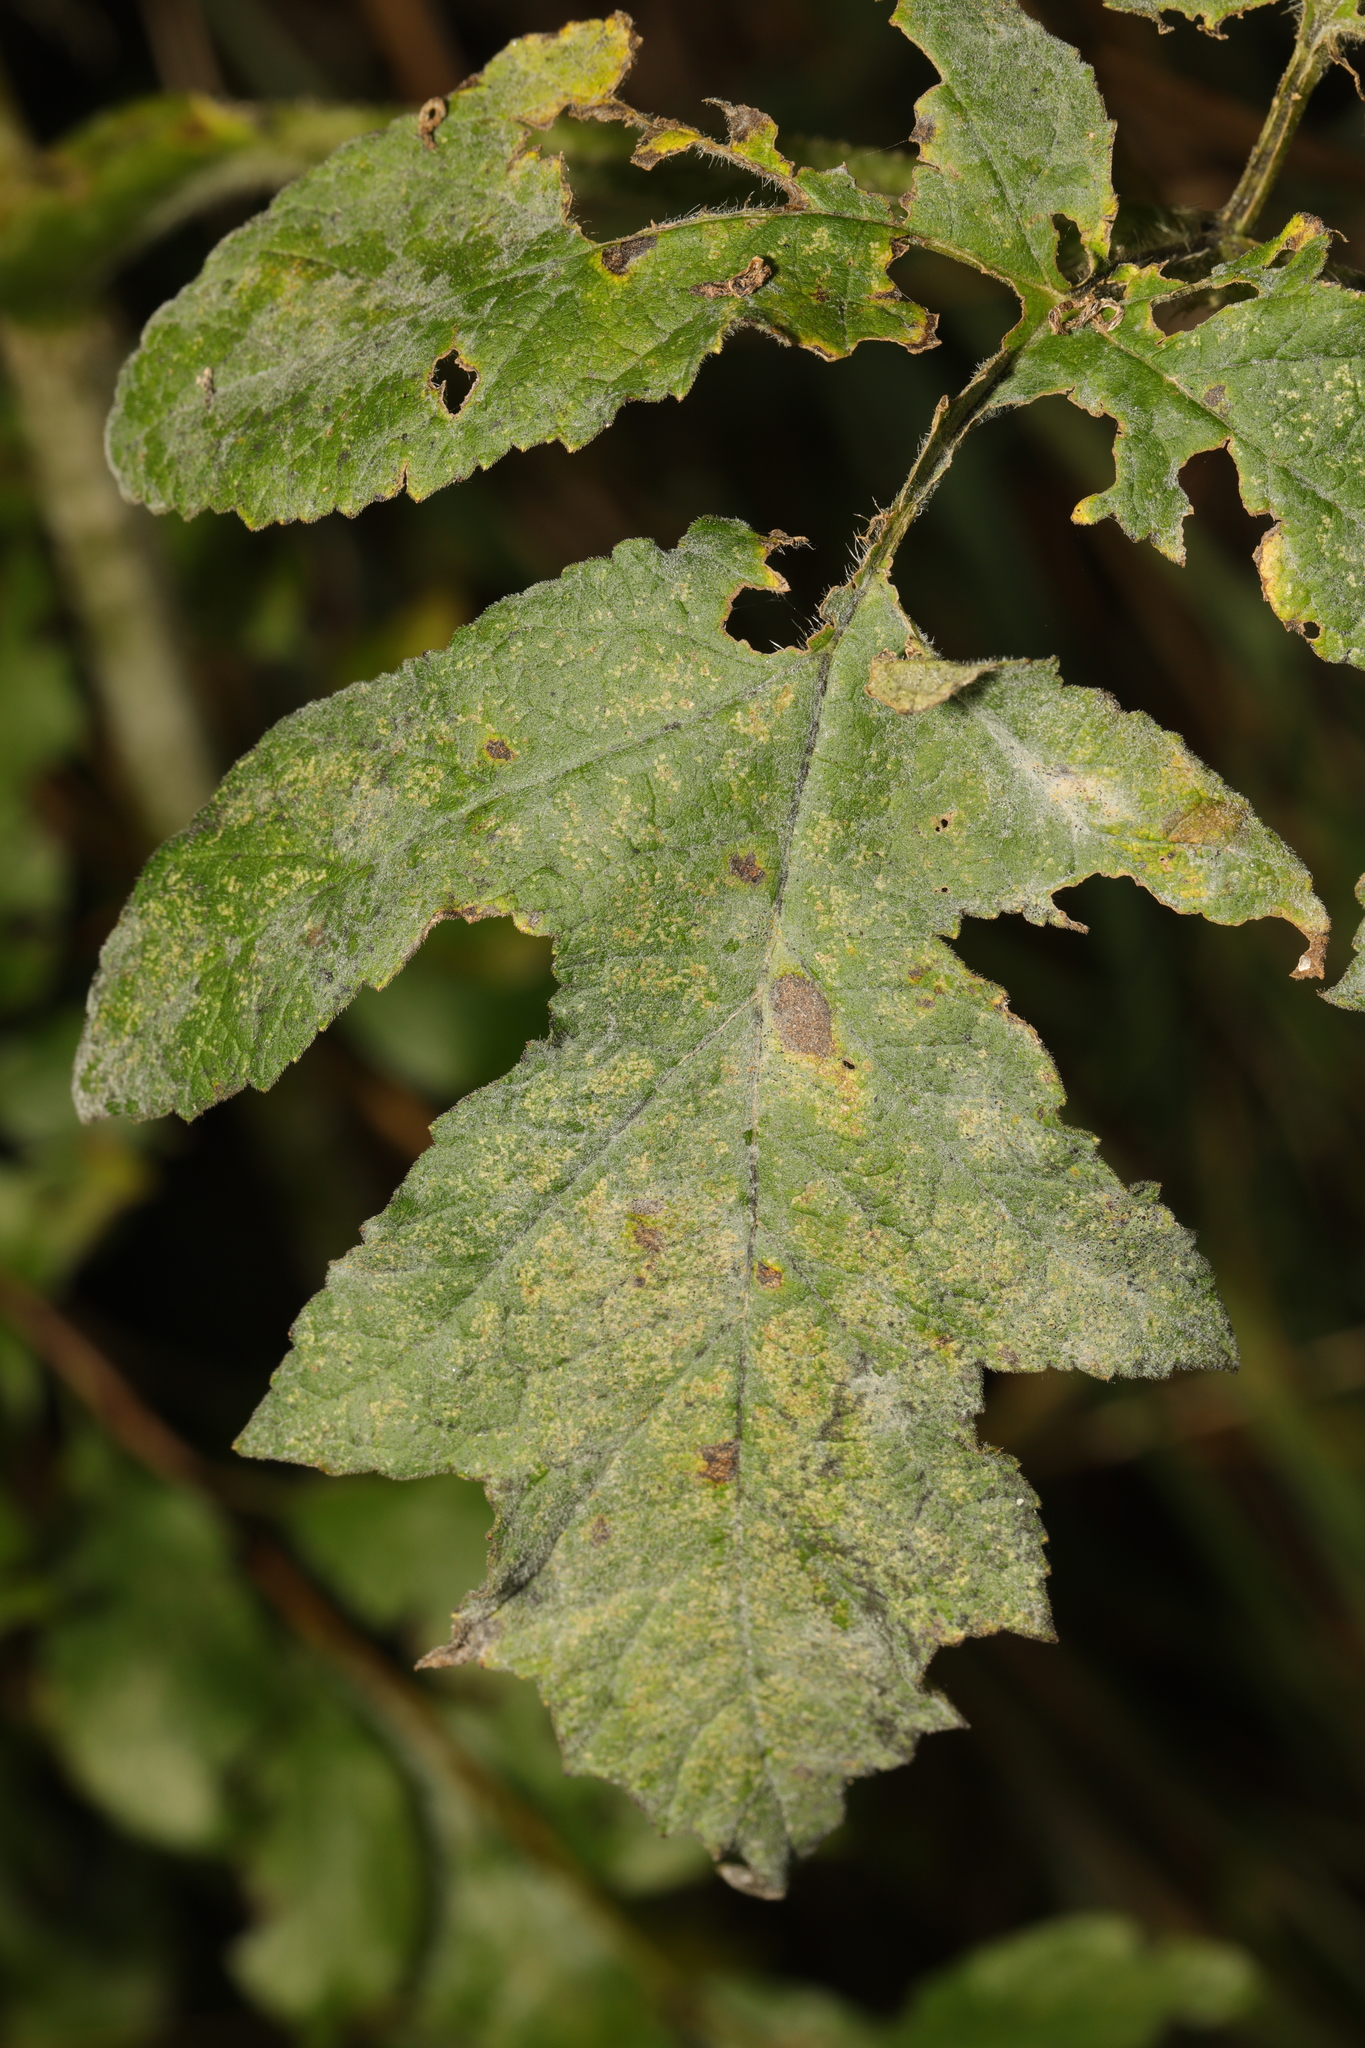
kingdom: Plantae
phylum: Tracheophyta
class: Magnoliopsida
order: Apiales
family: Apiaceae
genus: Heracleum
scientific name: Heracleum sphondylium
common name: Hogweed
